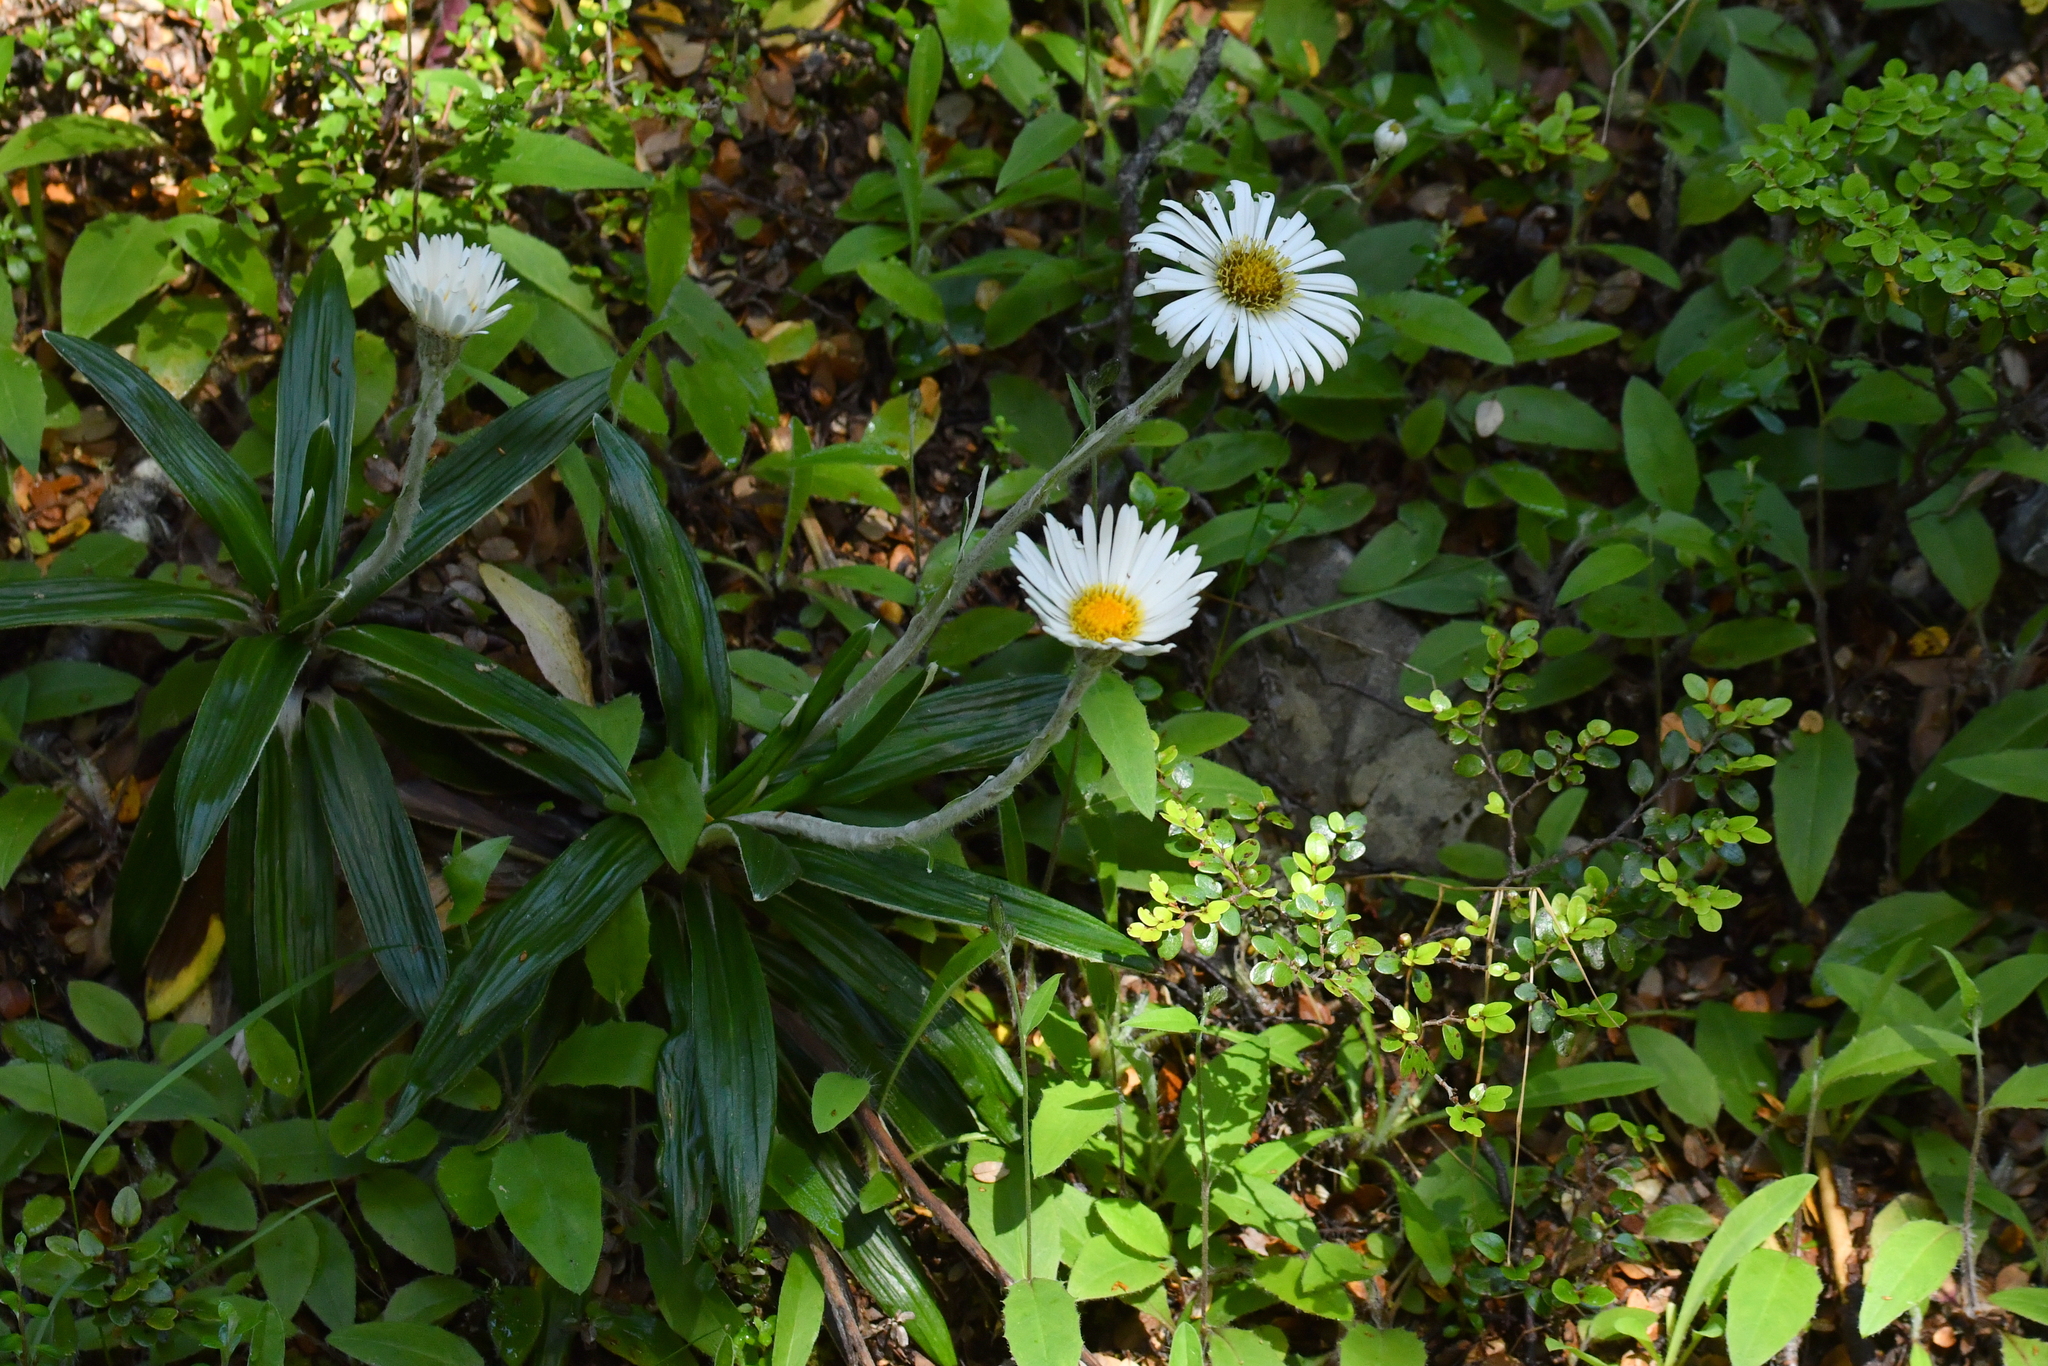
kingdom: Plantae
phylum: Tracheophyta
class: Magnoliopsida
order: Asterales
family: Asteraceae
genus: Celmisia
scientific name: Celmisia spectabilis
